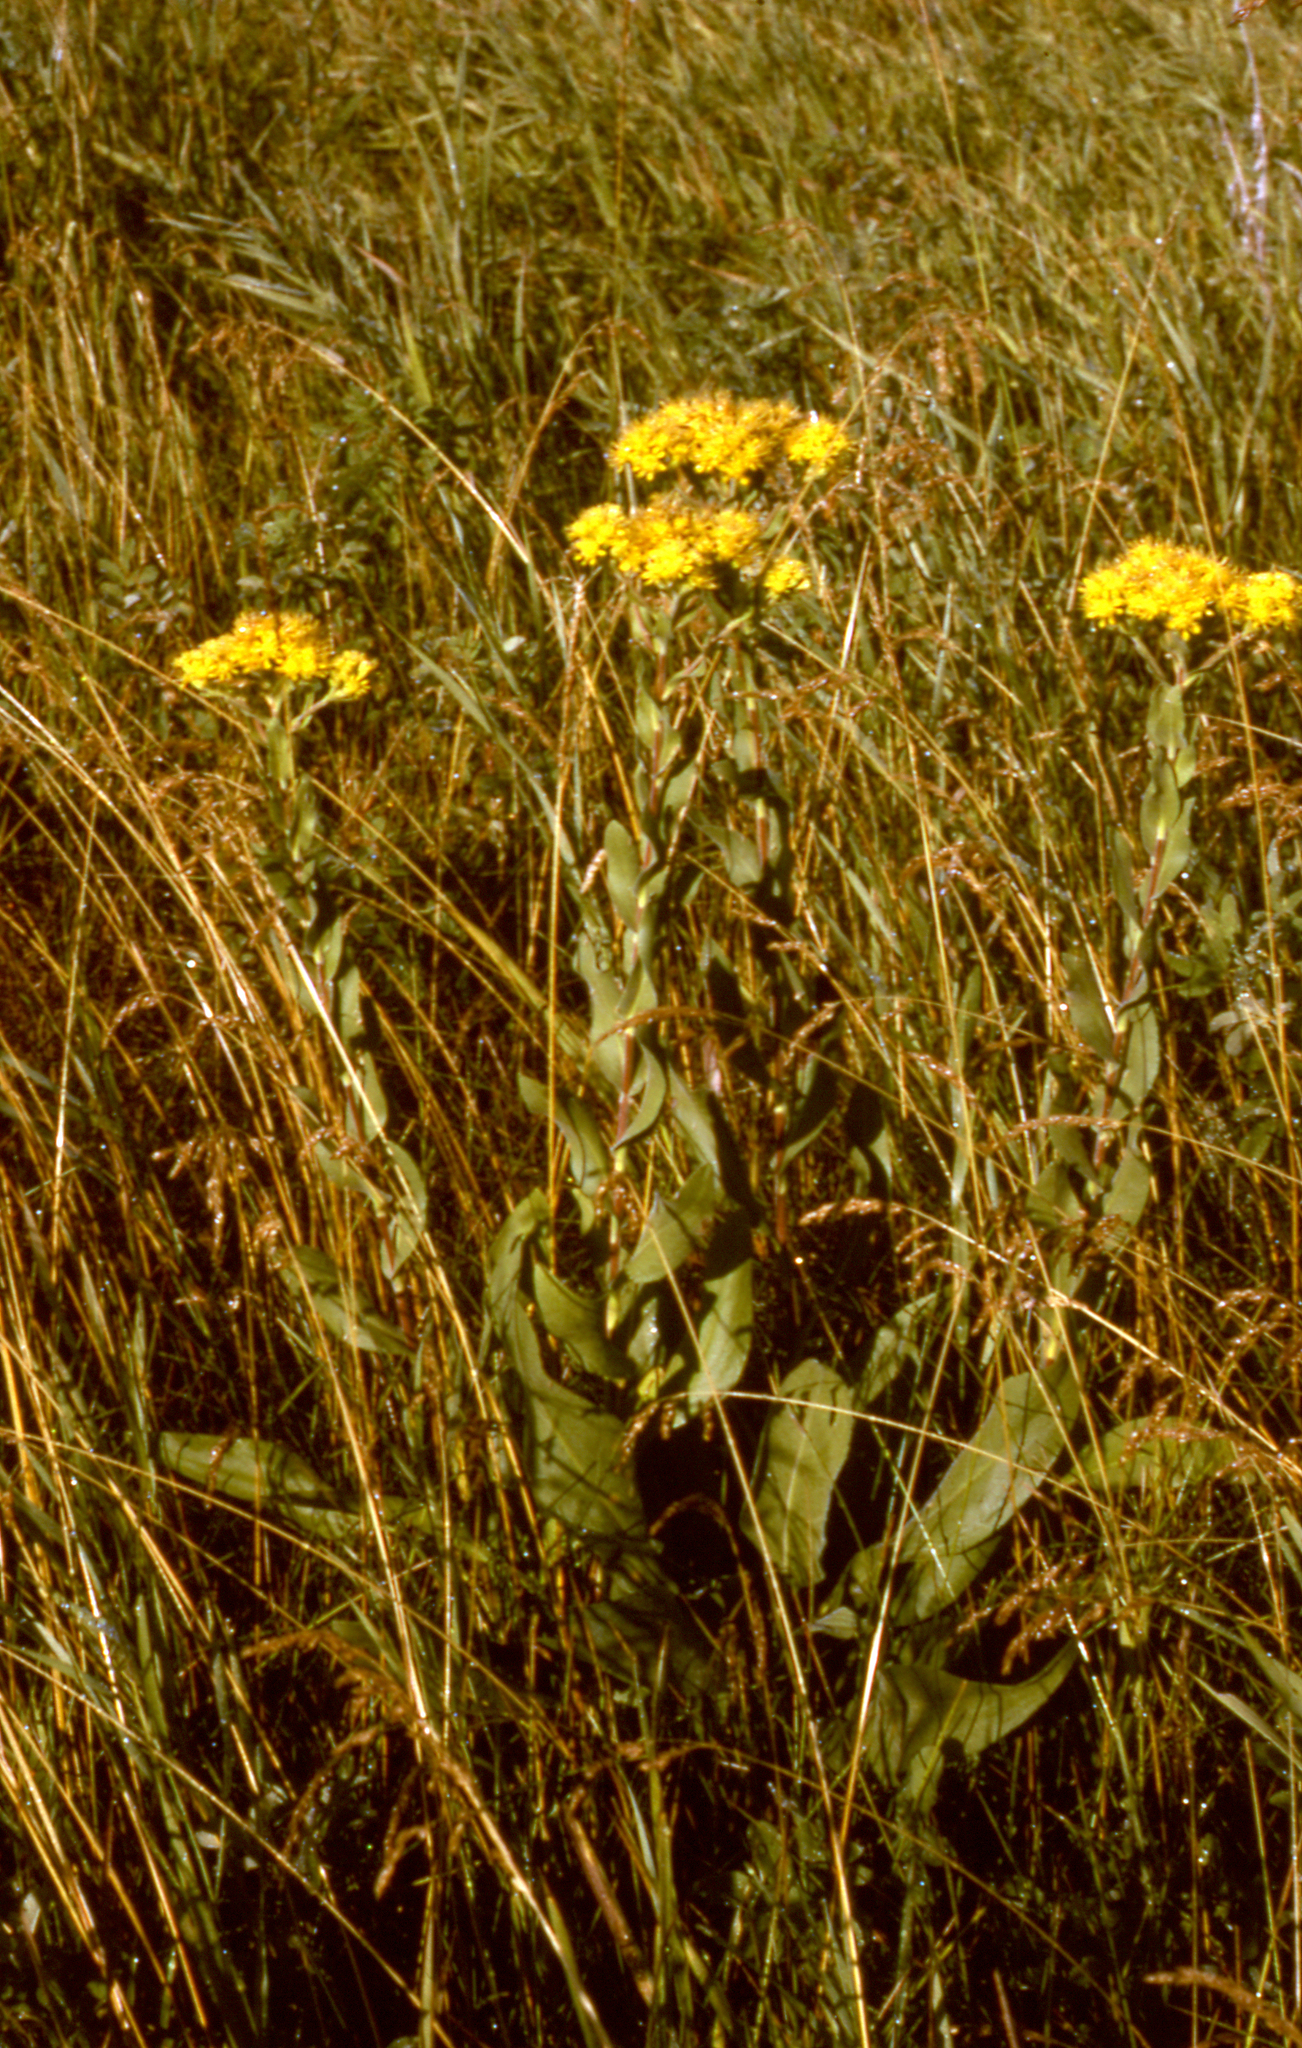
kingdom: Plantae
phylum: Tracheophyta
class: Magnoliopsida
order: Asterales
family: Asteraceae
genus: Solidago
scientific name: Solidago rigida
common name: Rigid goldenrod
